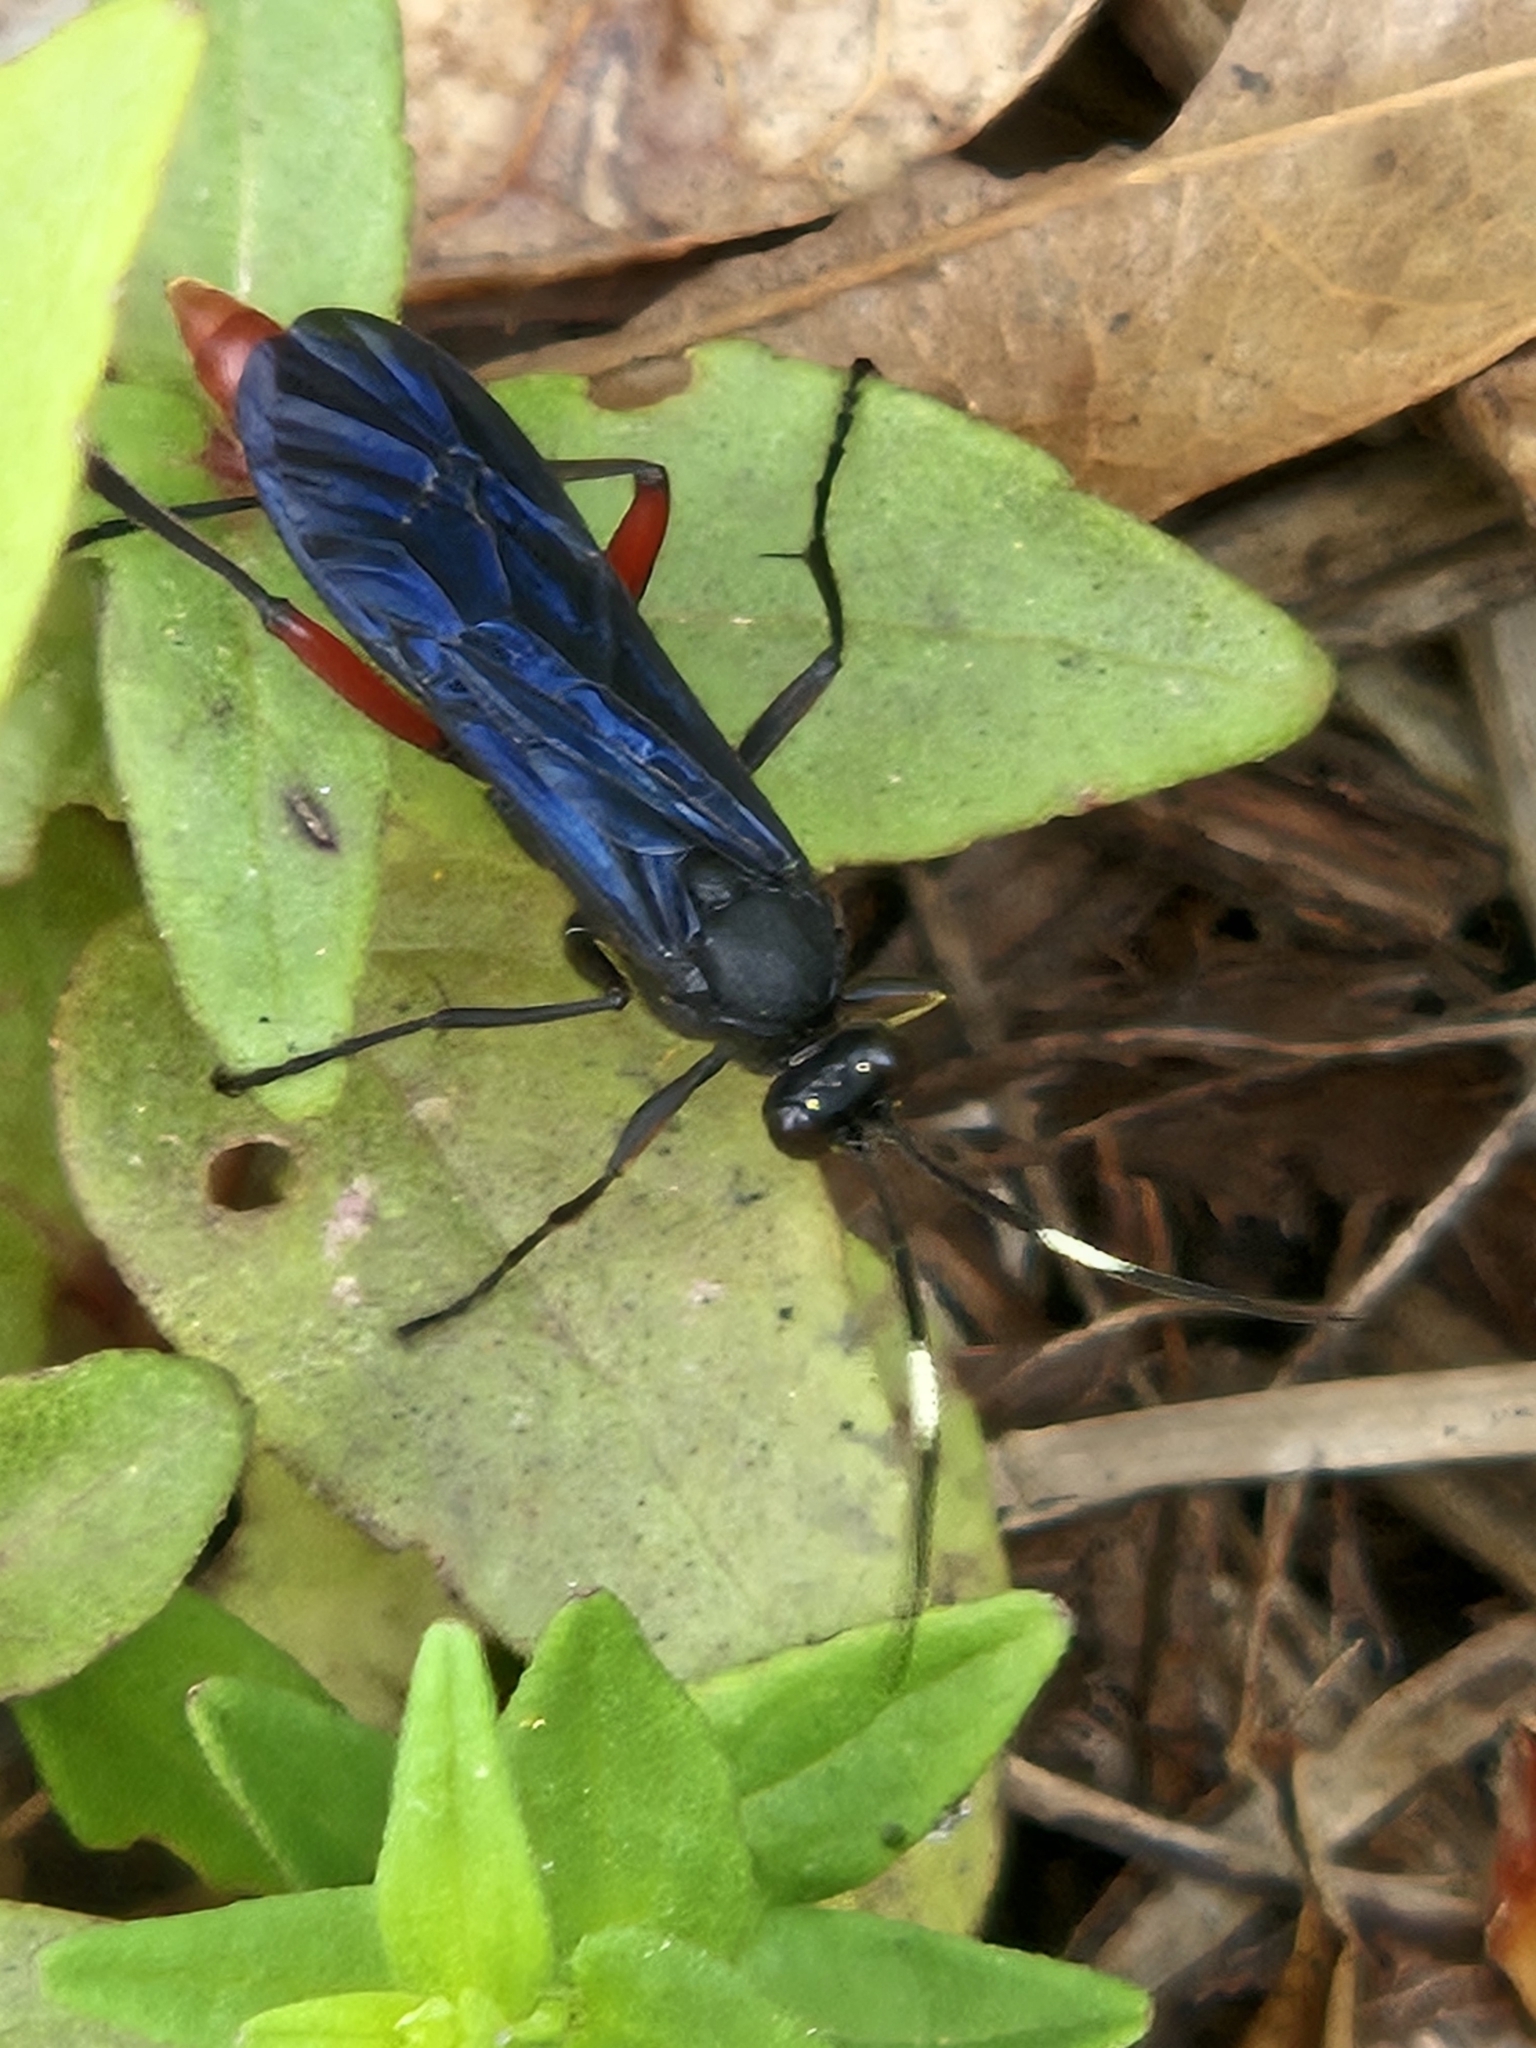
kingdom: Animalia
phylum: Arthropoda
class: Insecta
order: Hymenoptera
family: Ichneumonidae
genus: Limonethe
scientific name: Limonethe maurator
